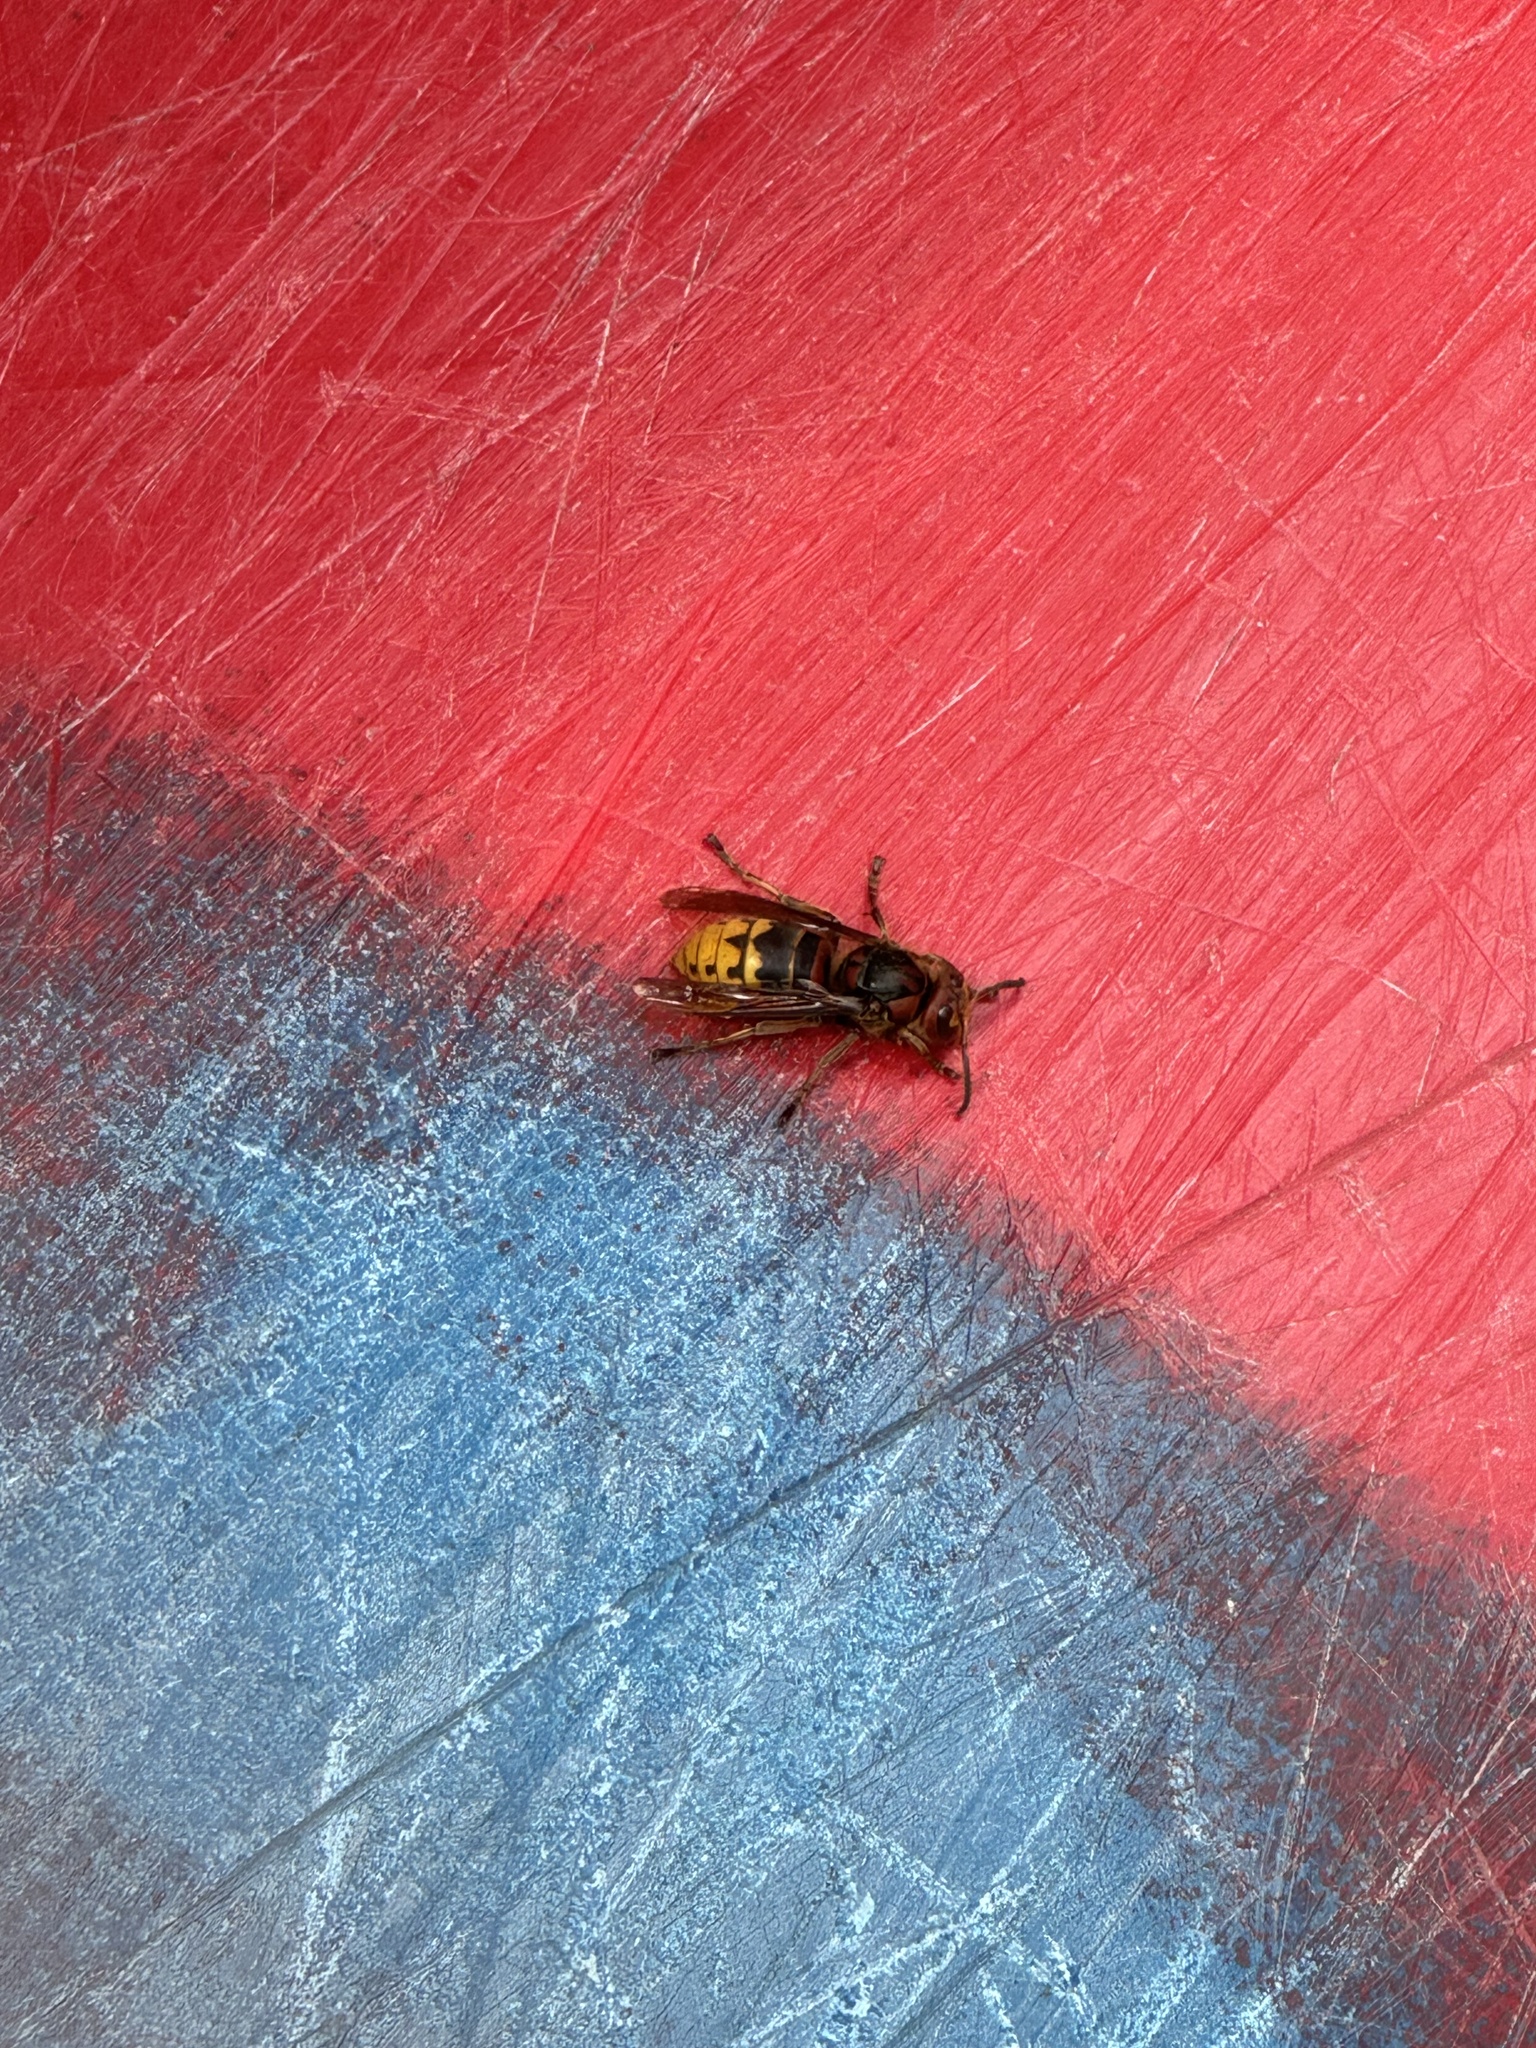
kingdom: Animalia
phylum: Arthropoda
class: Insecta
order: Hymenoptera
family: Vespidae
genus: Vespa
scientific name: Vespa crabro
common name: Hornet
